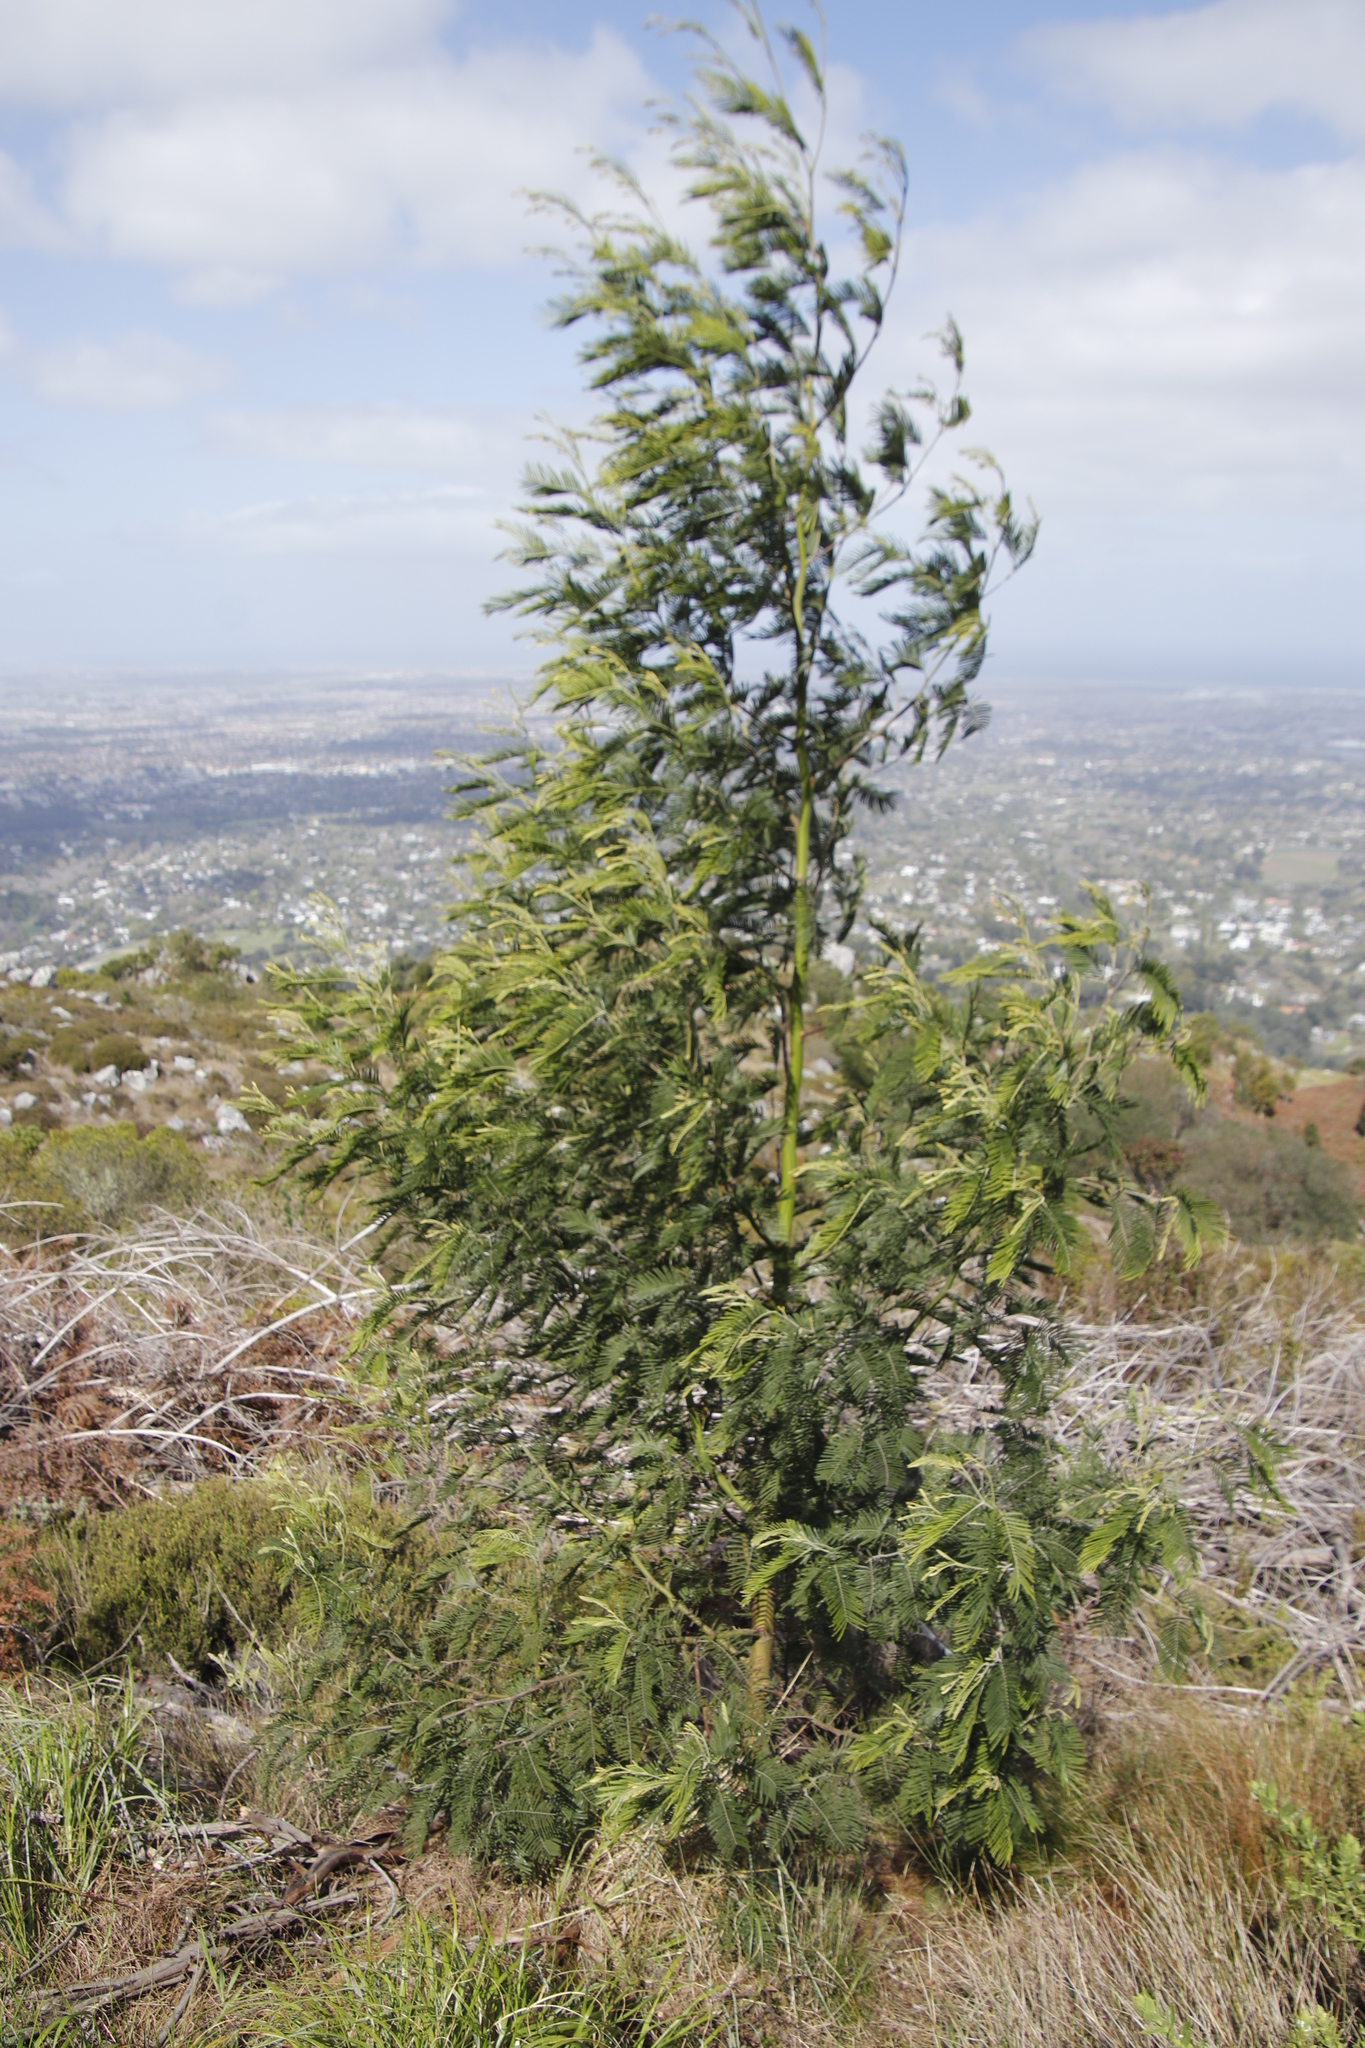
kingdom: Plantae
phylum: Tracheophyta
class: Magnoliopsida
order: Fabales
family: Fabaceae
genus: Acacia
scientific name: Acacia mearnsii
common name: Black wattle
